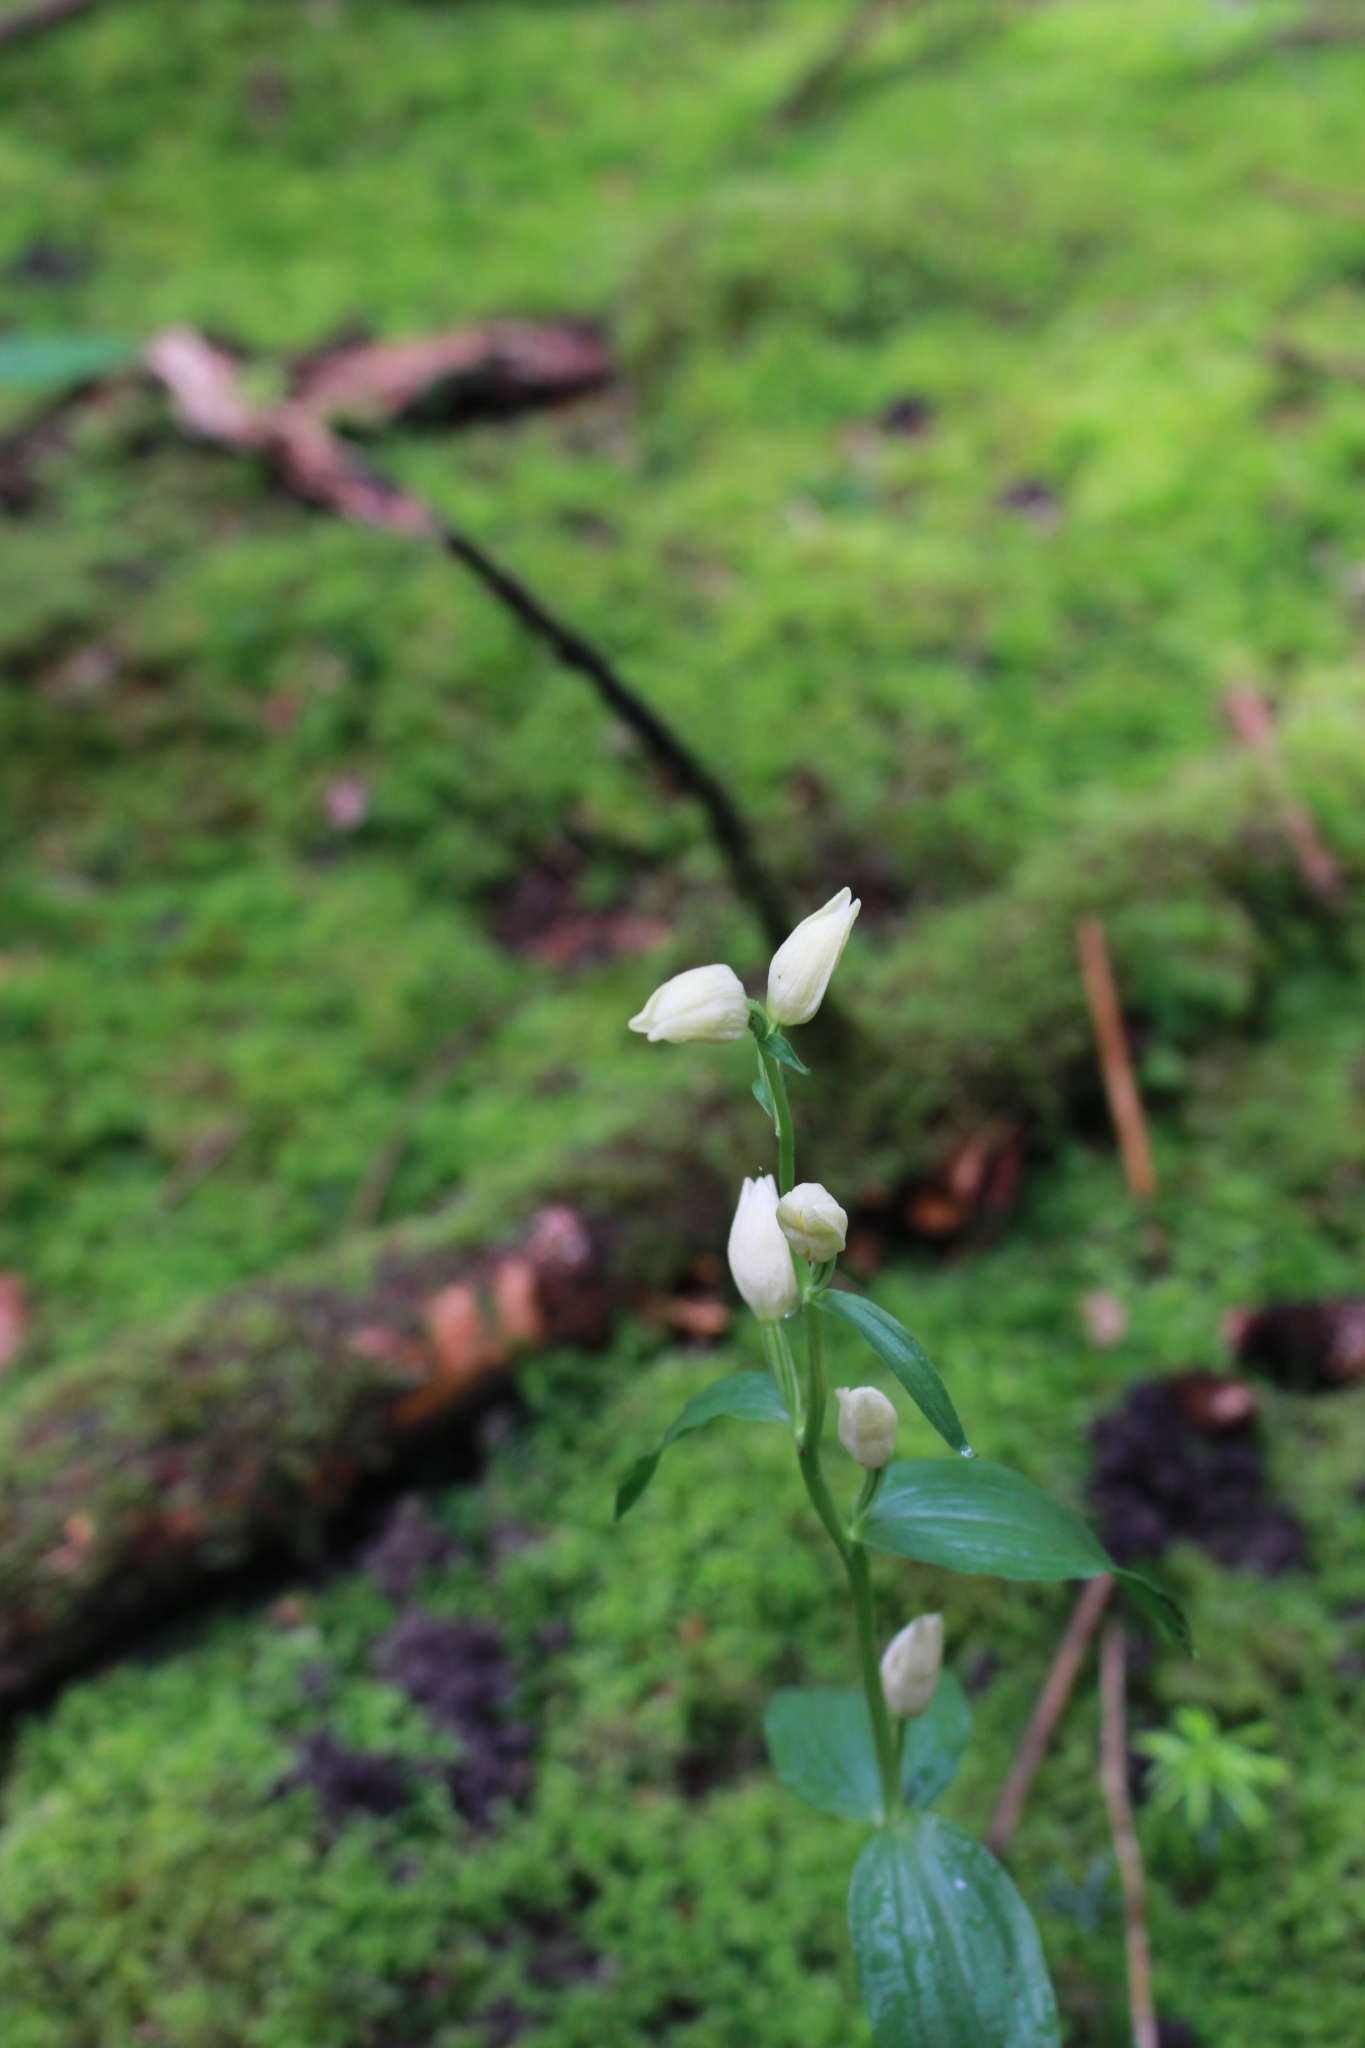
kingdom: Plantae
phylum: Tracheophyta
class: Liliopsida
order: Asparagales
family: Orchidaceae
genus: Cephalanthera
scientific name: Cephalanthera damasonium
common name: White helleborine
